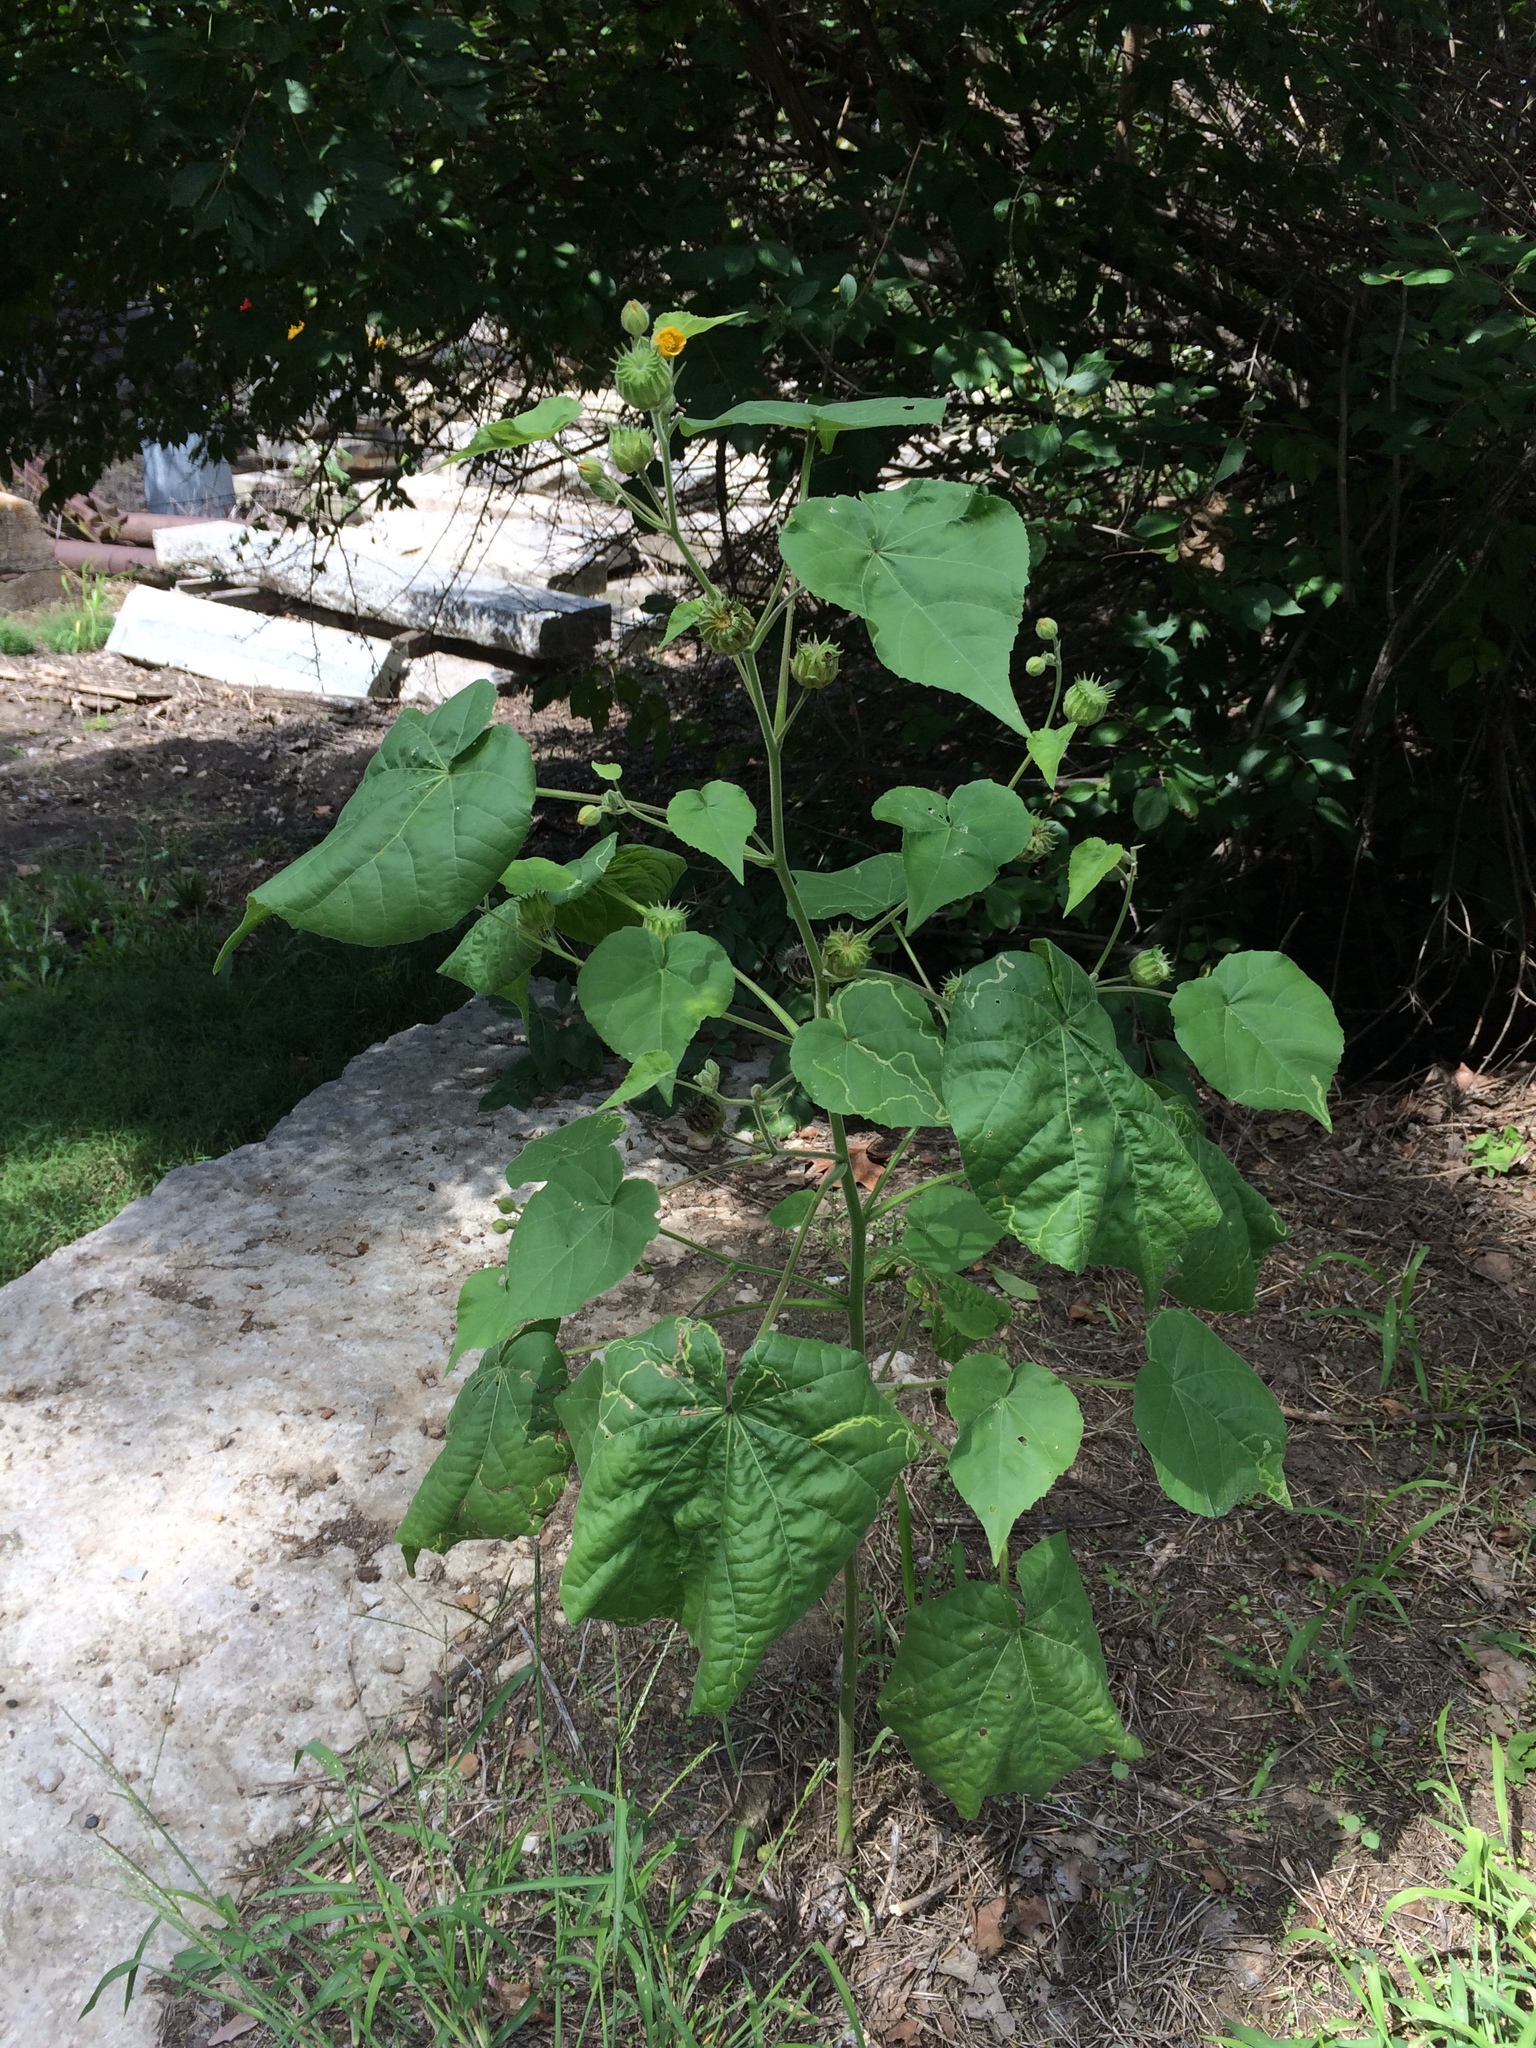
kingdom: Plantae
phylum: Tracheophyta
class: Magnoliopsida
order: Malvales
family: Malvaceae
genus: Abutilon
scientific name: Abutilon theophrasti
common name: Velvetleaf
